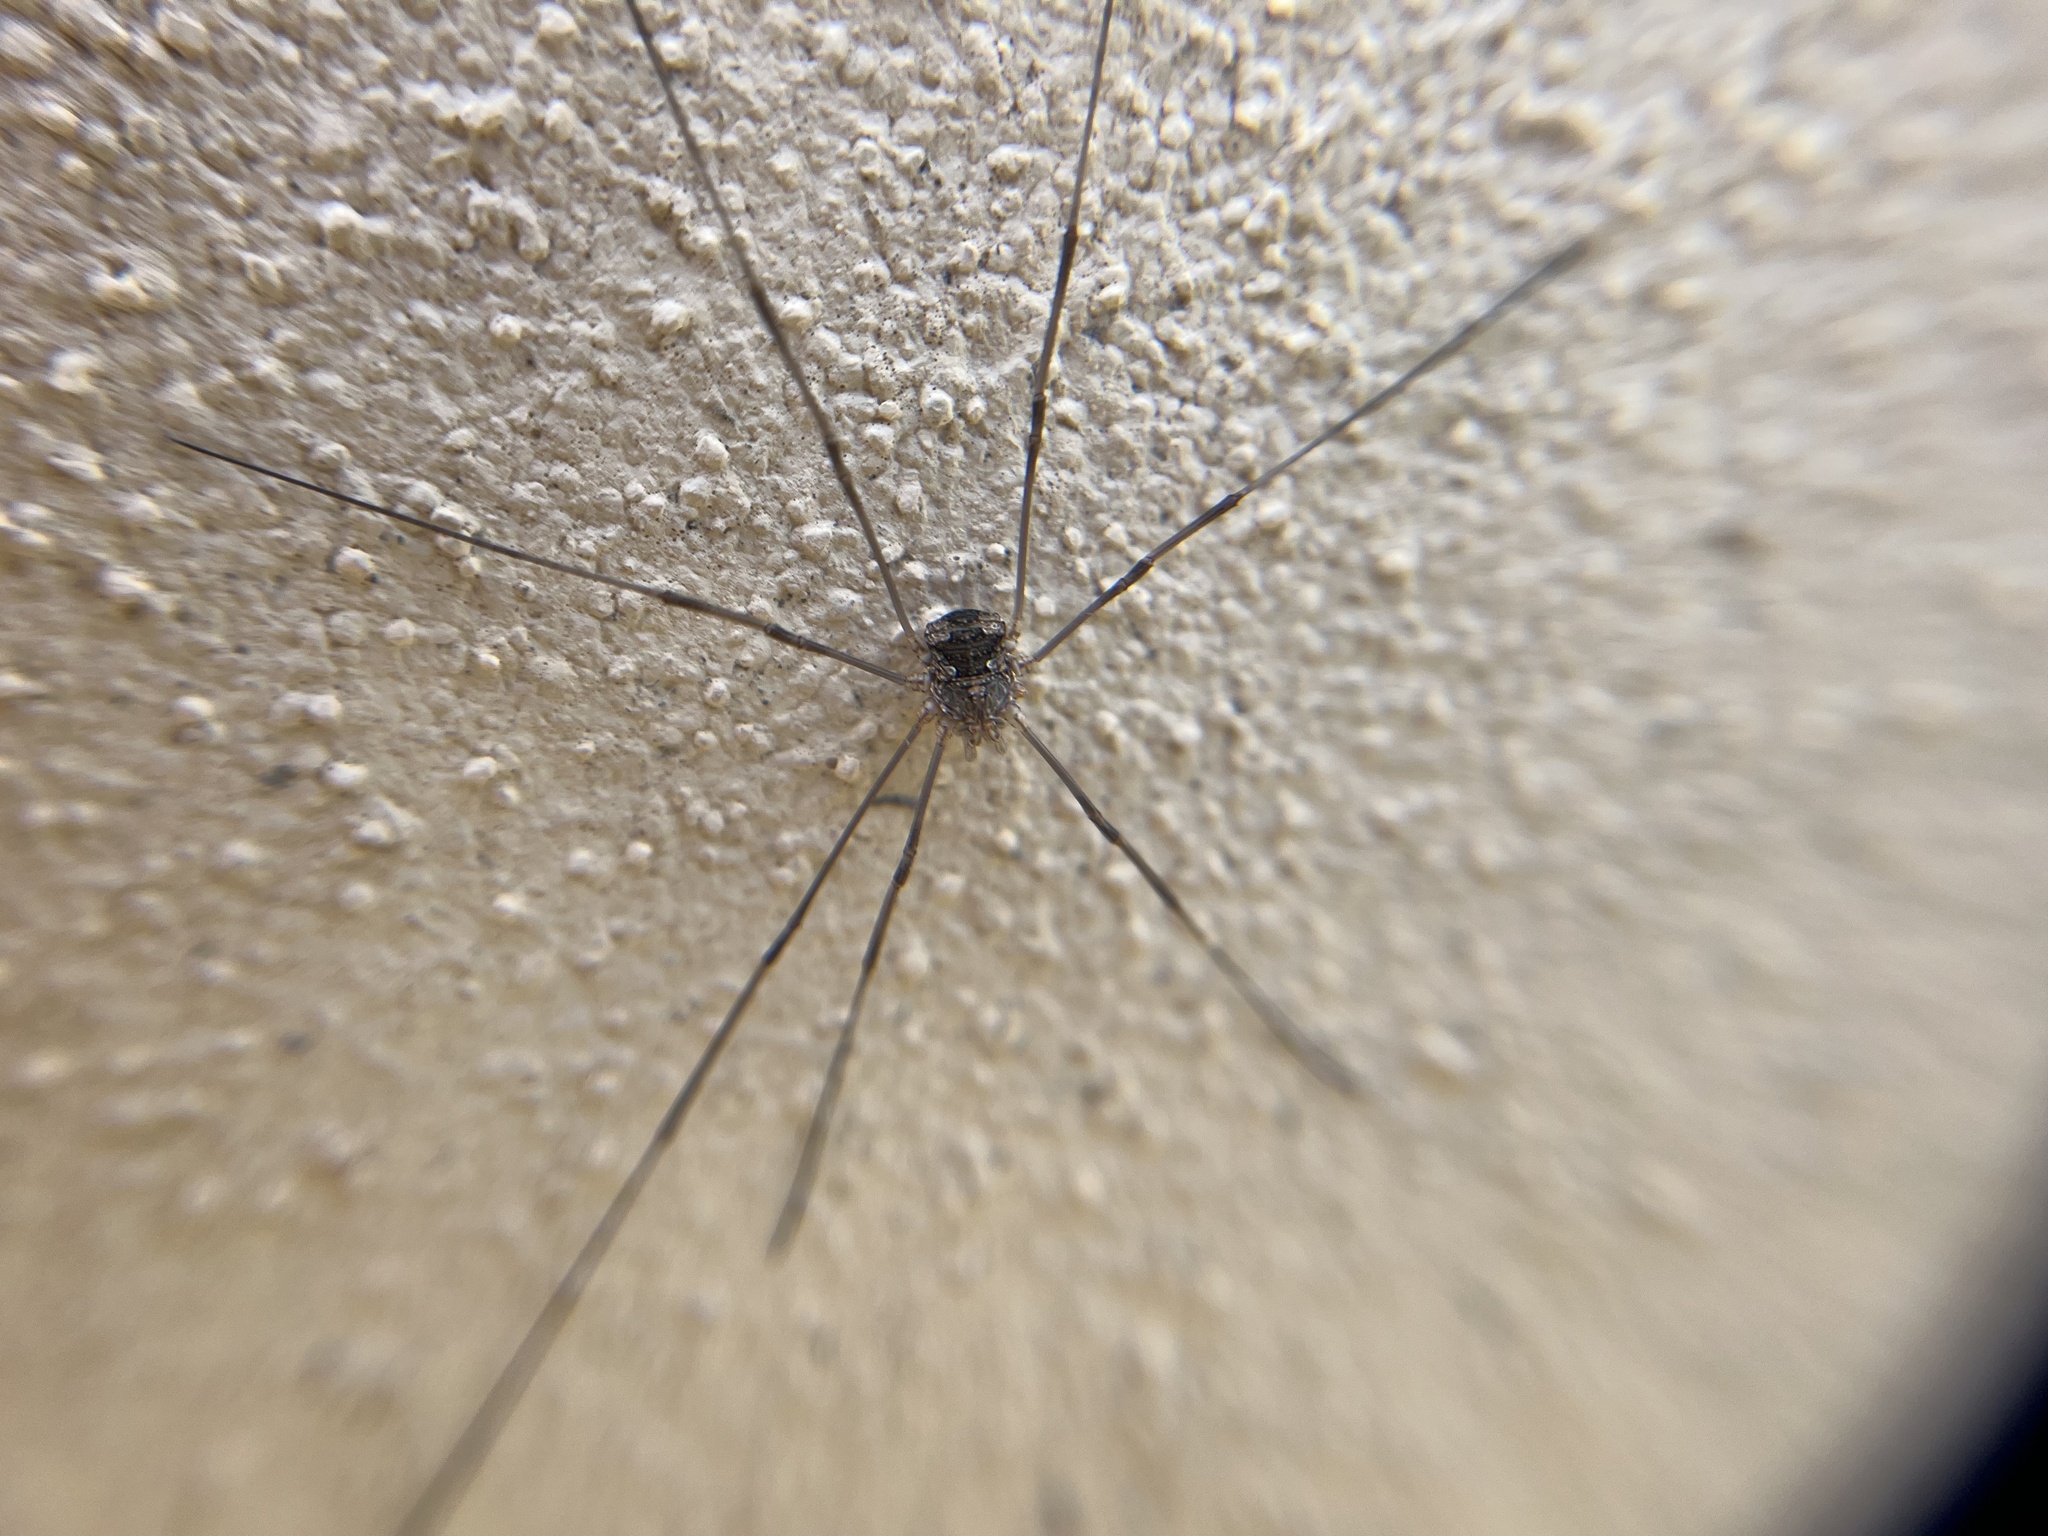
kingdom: Animalia
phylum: Arthropoda
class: Arachnida
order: Opiliones
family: Phalangiidae
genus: Phalangium
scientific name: Phalangium opilio
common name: Daddy longleg
